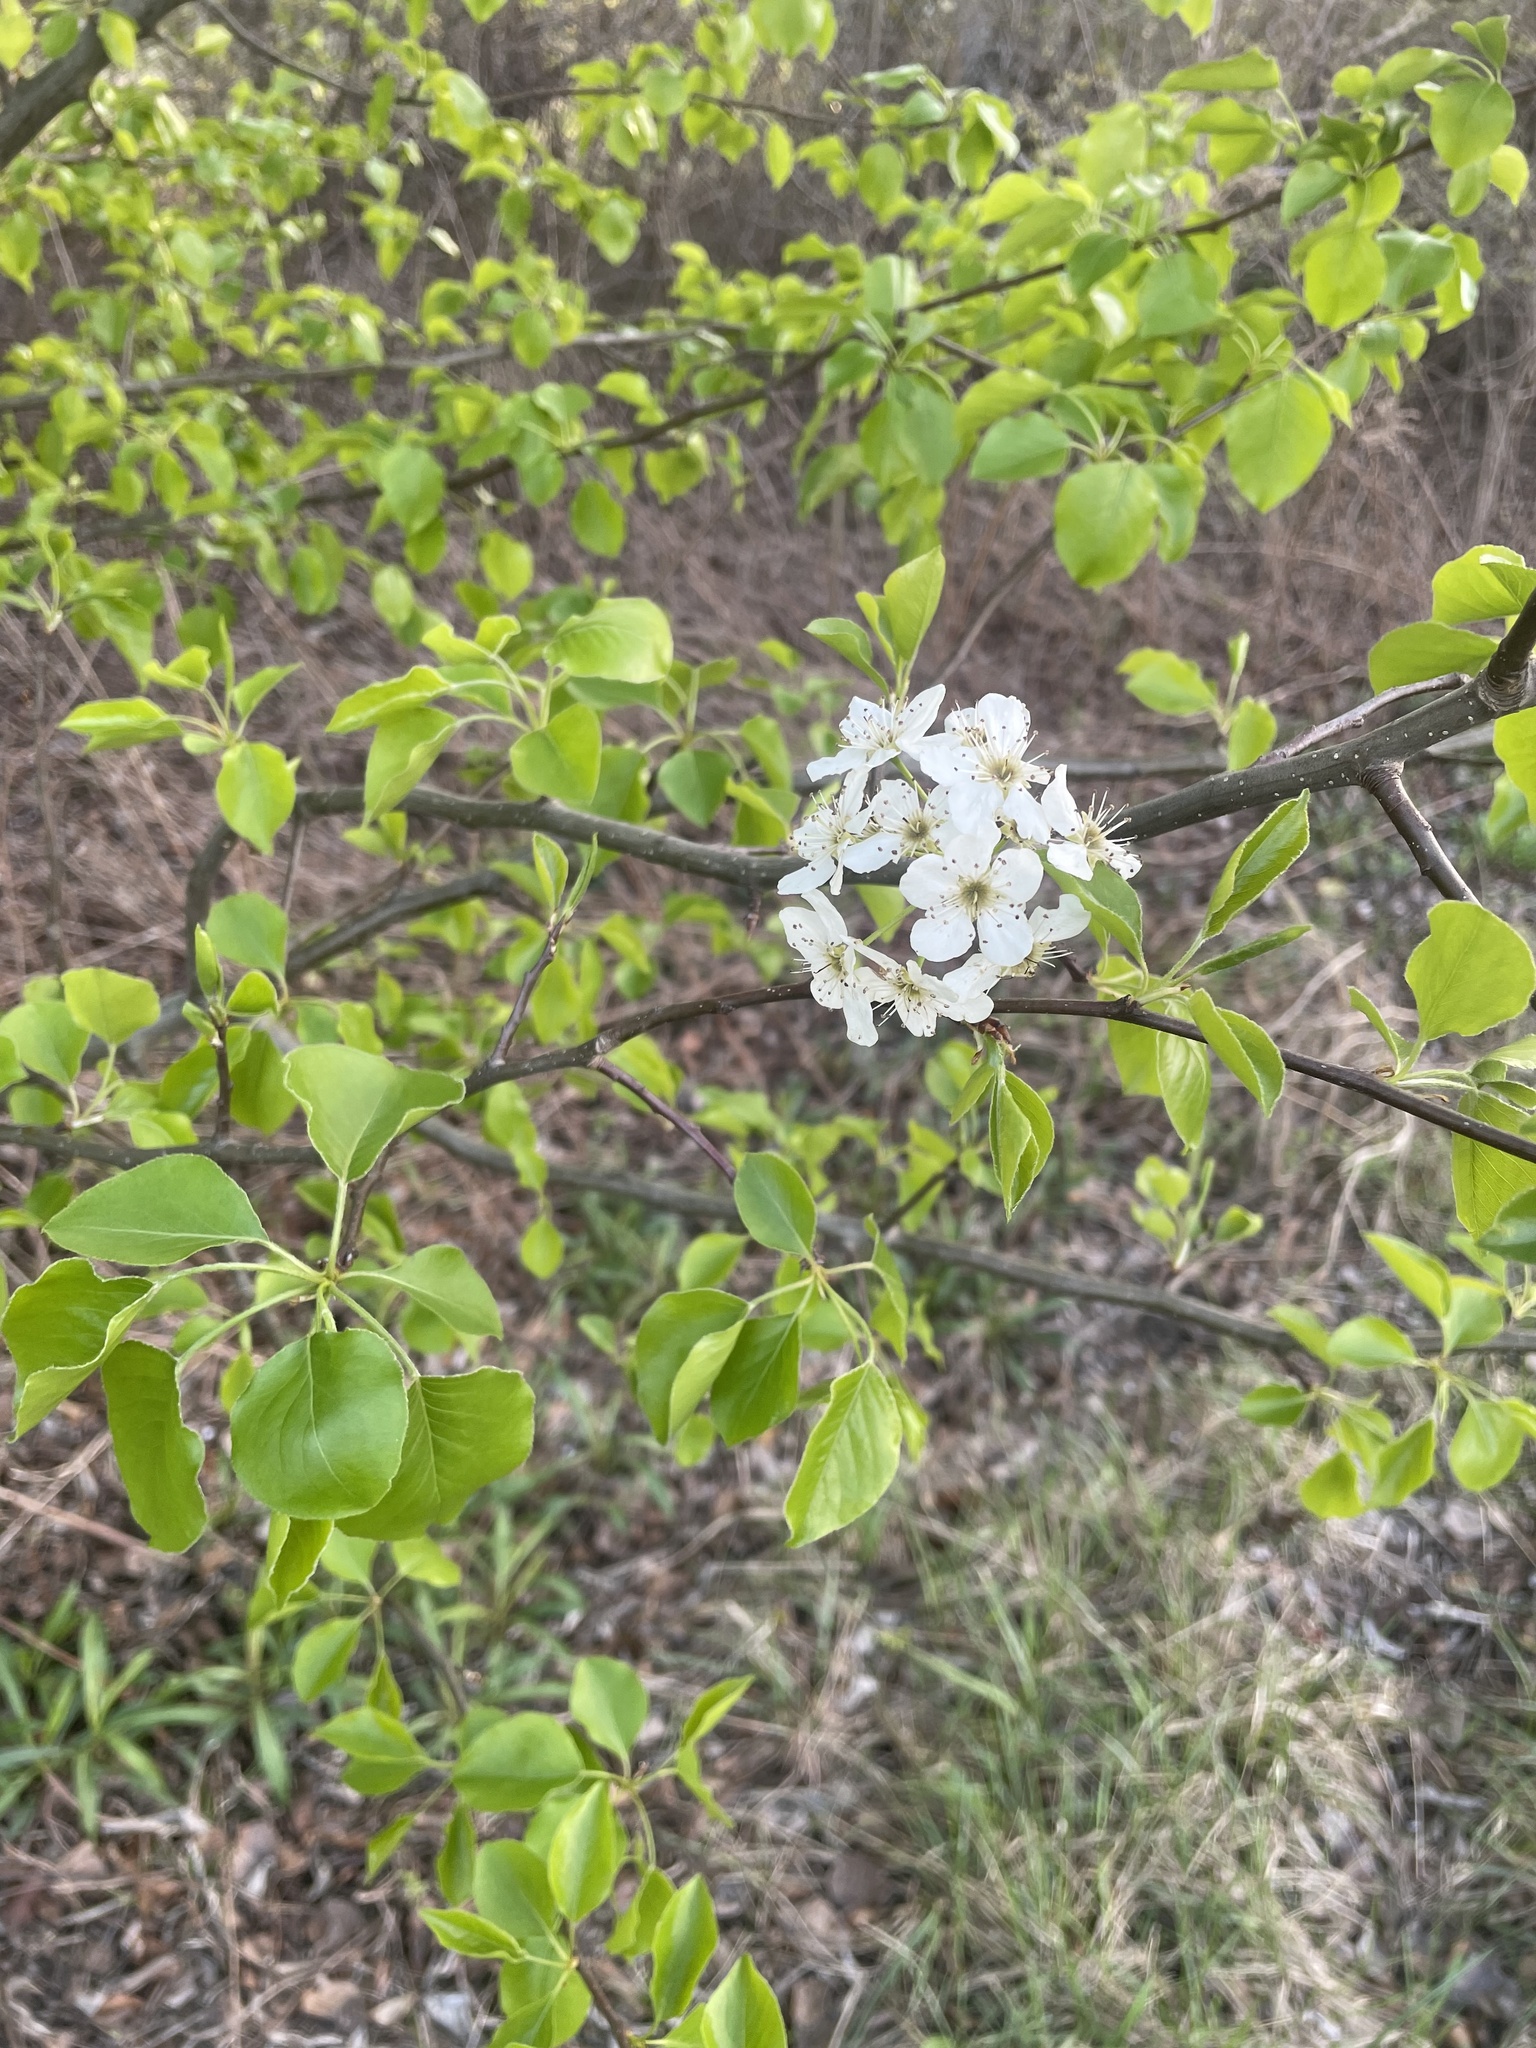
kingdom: Plantae
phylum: Tracheophyta
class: Magnoliopsida
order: Rosales
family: Rosaceae
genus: Pyrus
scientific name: Pyrus calleryana
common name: Callery pear
